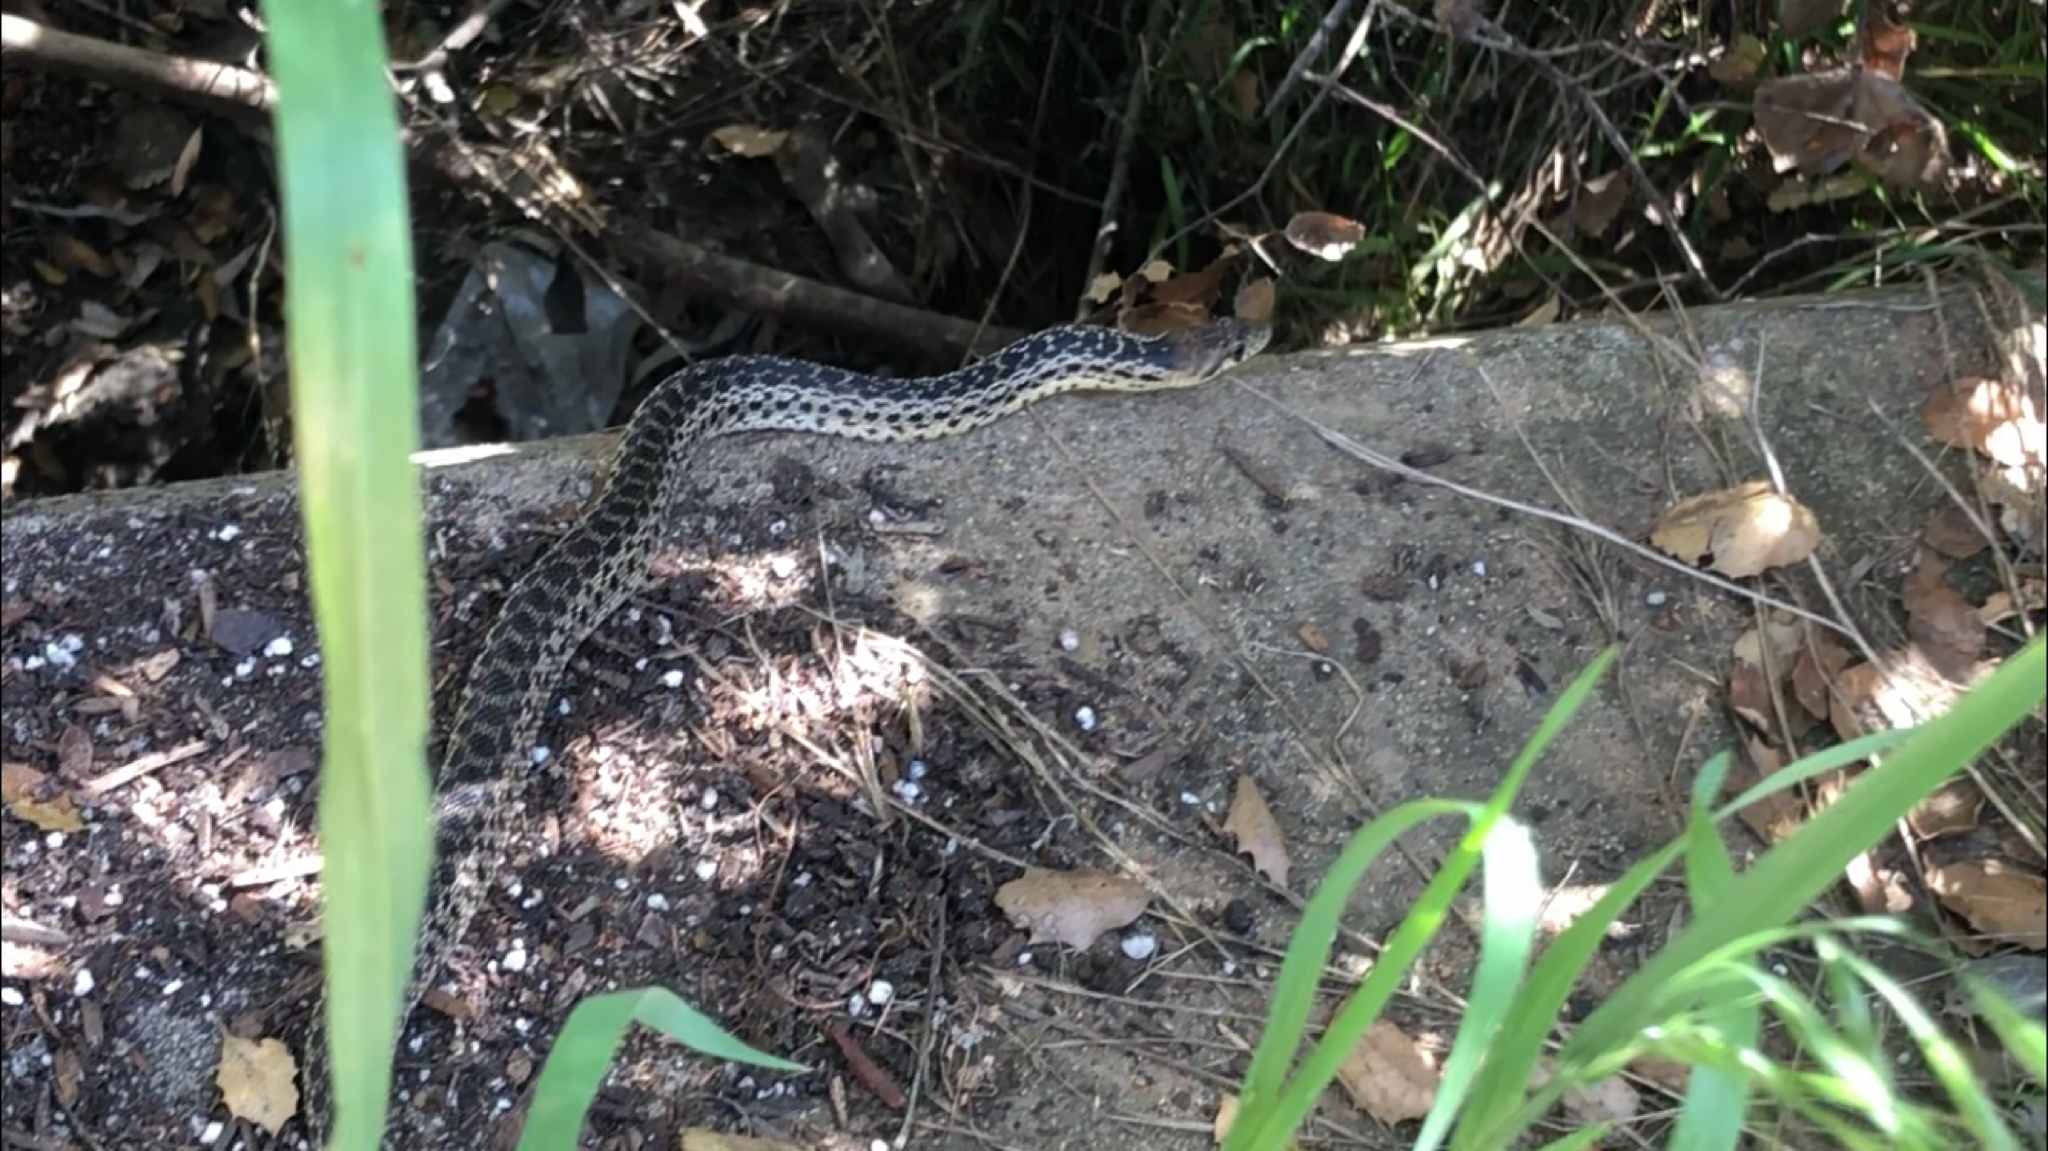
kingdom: Animalia
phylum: Chordata
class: Squamata
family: Colubridae
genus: Pituophis
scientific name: Pituophis catenifer
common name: Gopher snake
